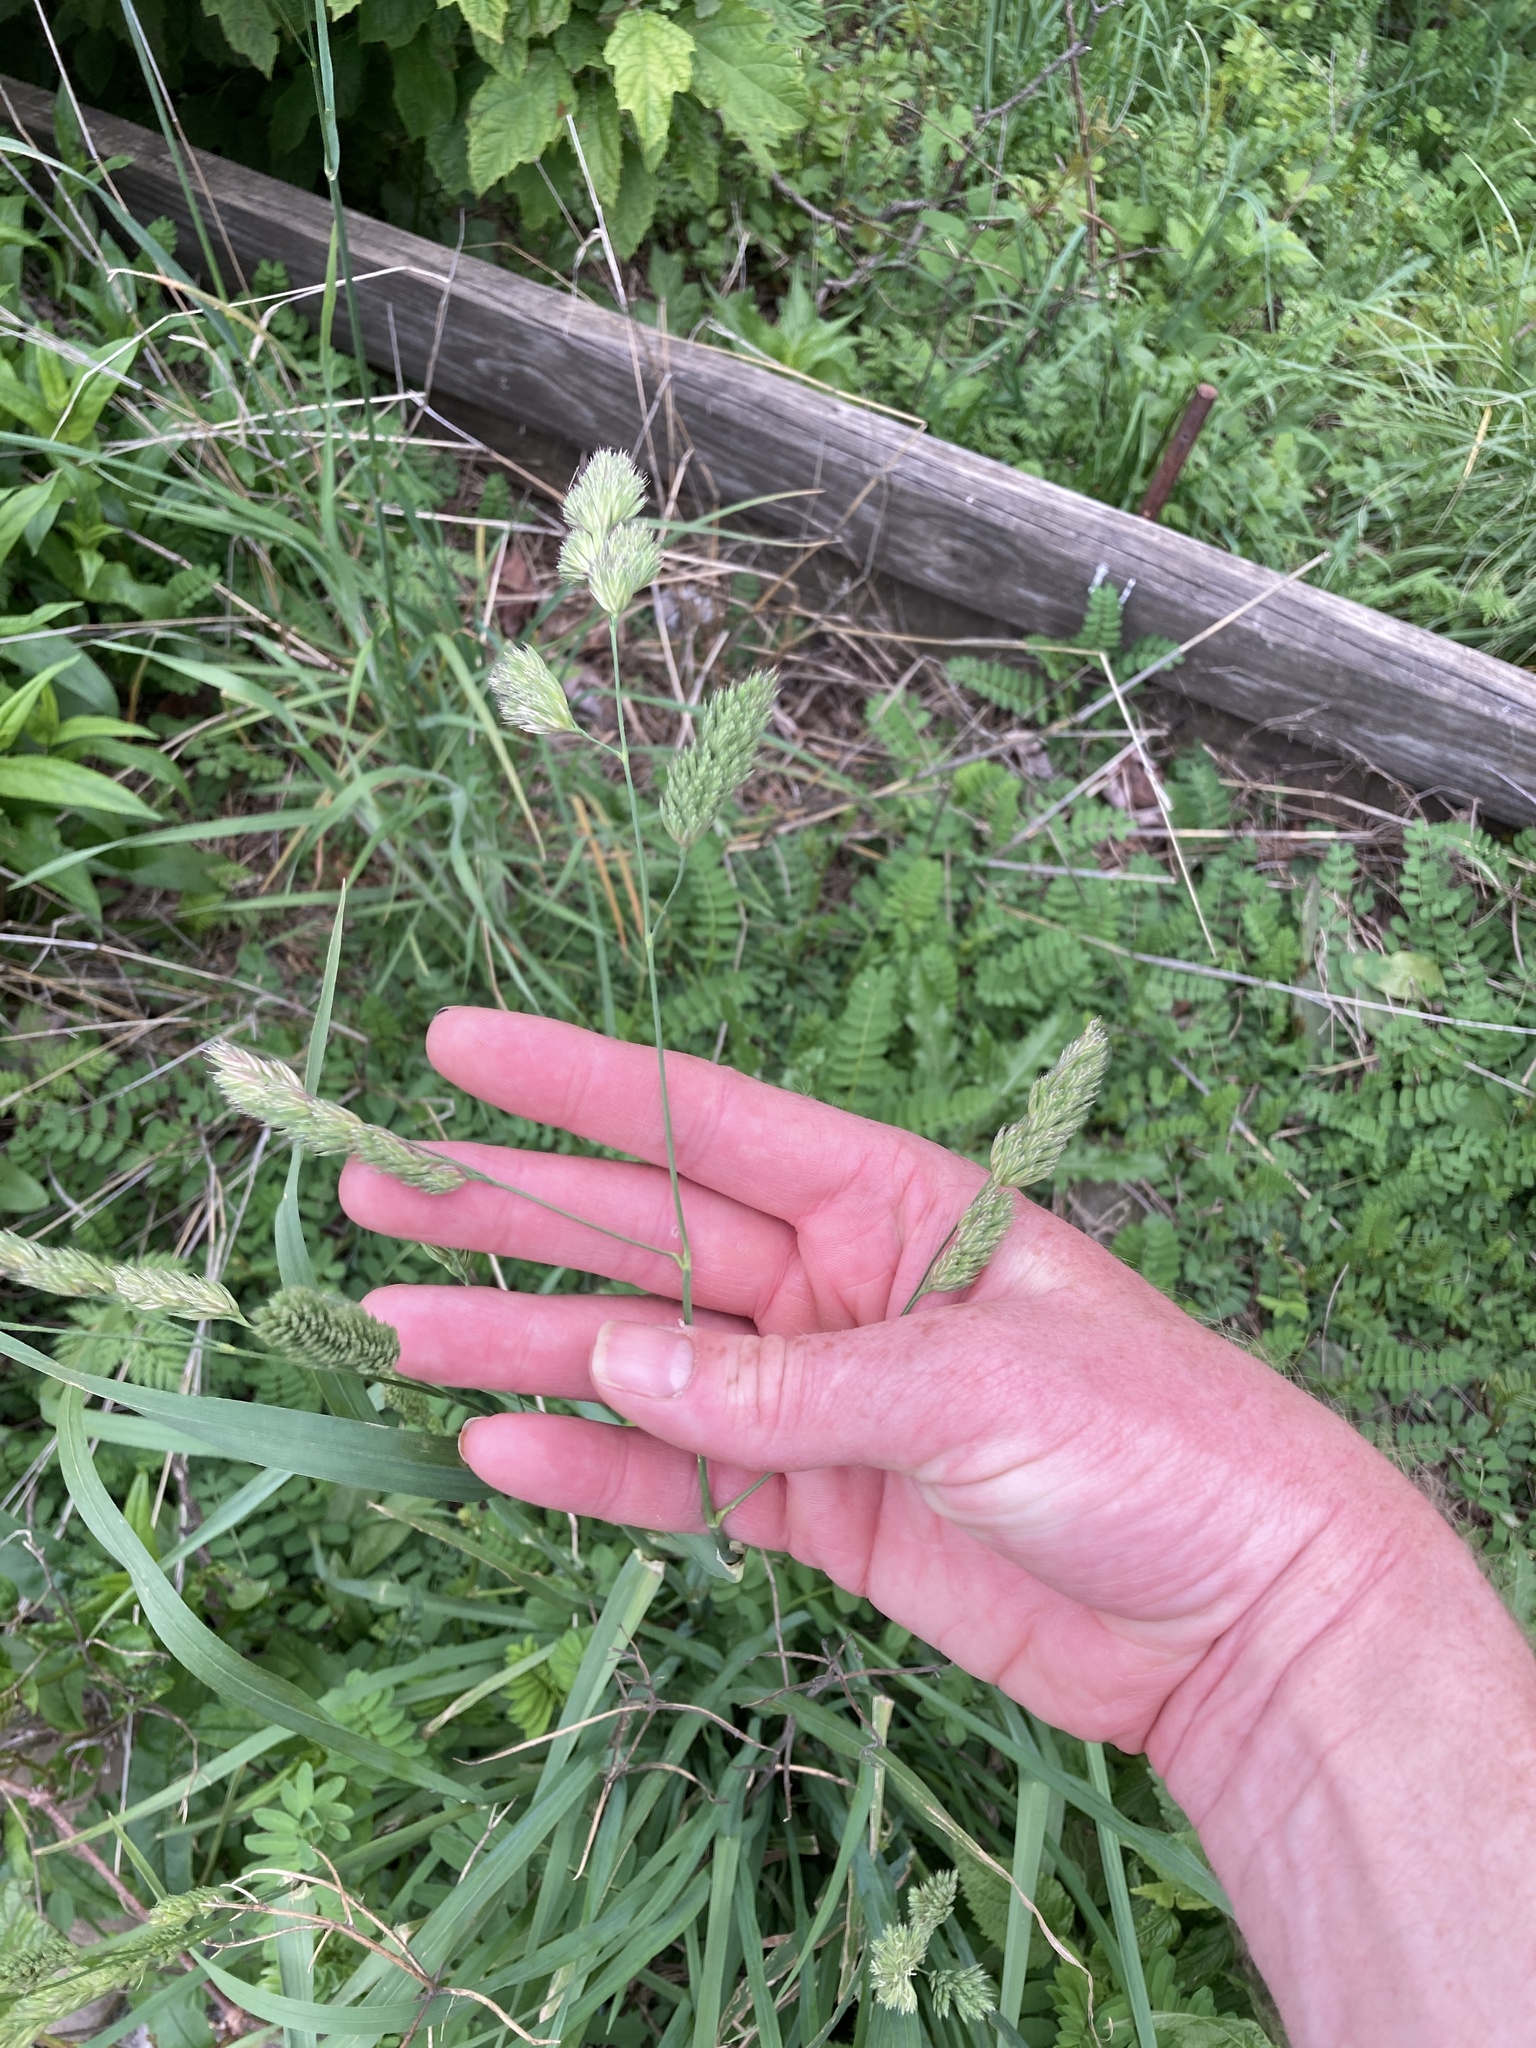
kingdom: Plantae
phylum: Tracheophyta
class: Liliopsida
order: Poales
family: Poaceae
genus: Dactylis
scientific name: Dactylis glomerata
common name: Orchardgrass
